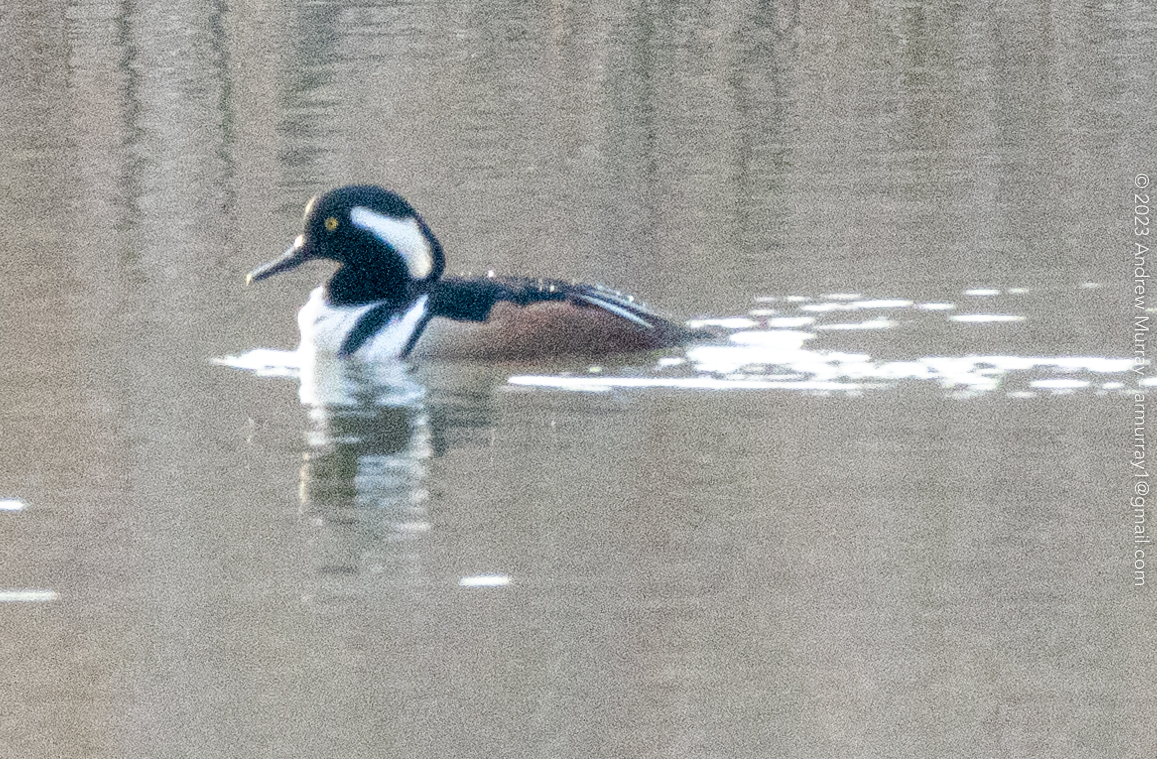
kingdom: Animalia
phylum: Chordata
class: Aves
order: Anseriformes
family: Anatidae
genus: Lophodytes
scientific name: Lophodytes cucullatus
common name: Hooded merganser
